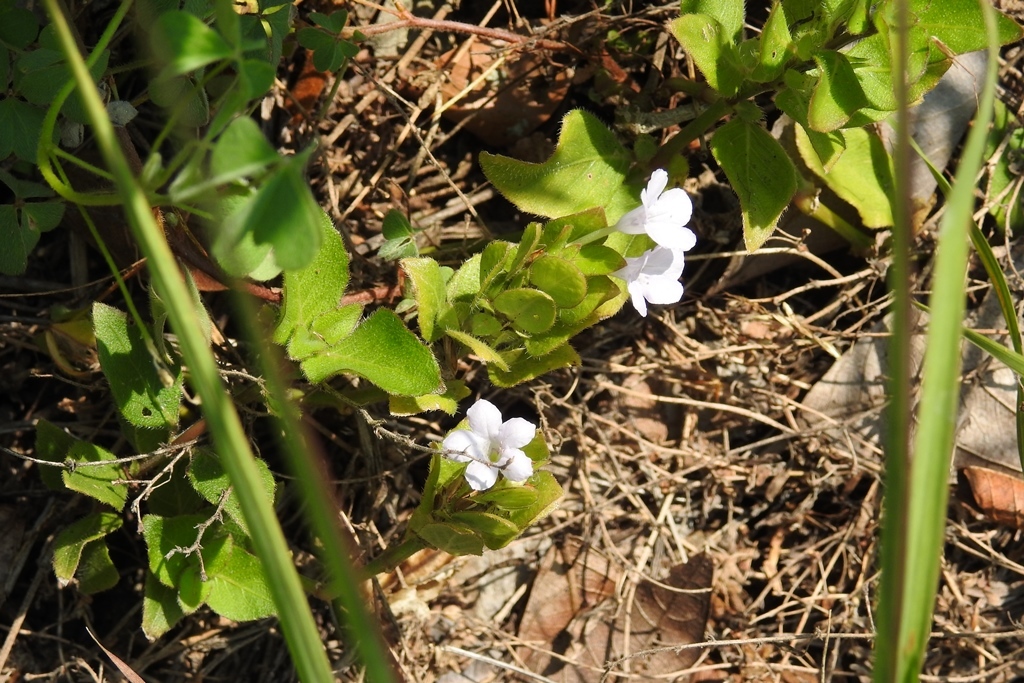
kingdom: Plantae
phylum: Tracheophyta
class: Magnoliopsida
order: Lamiales
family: Acanthaceae
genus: Ruellia
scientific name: Ruellia blechum
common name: Browne's blechum
